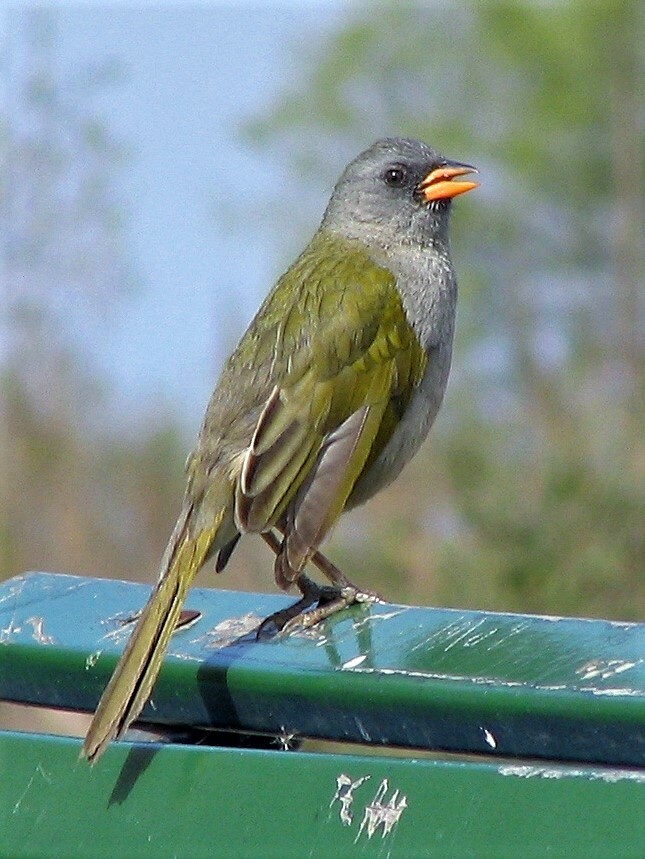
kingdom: Animalia
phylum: Chordata
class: Aves
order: Passeriformes
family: Thraupidae
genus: Embernagra
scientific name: Embernagra platensis
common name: Pampa finch
